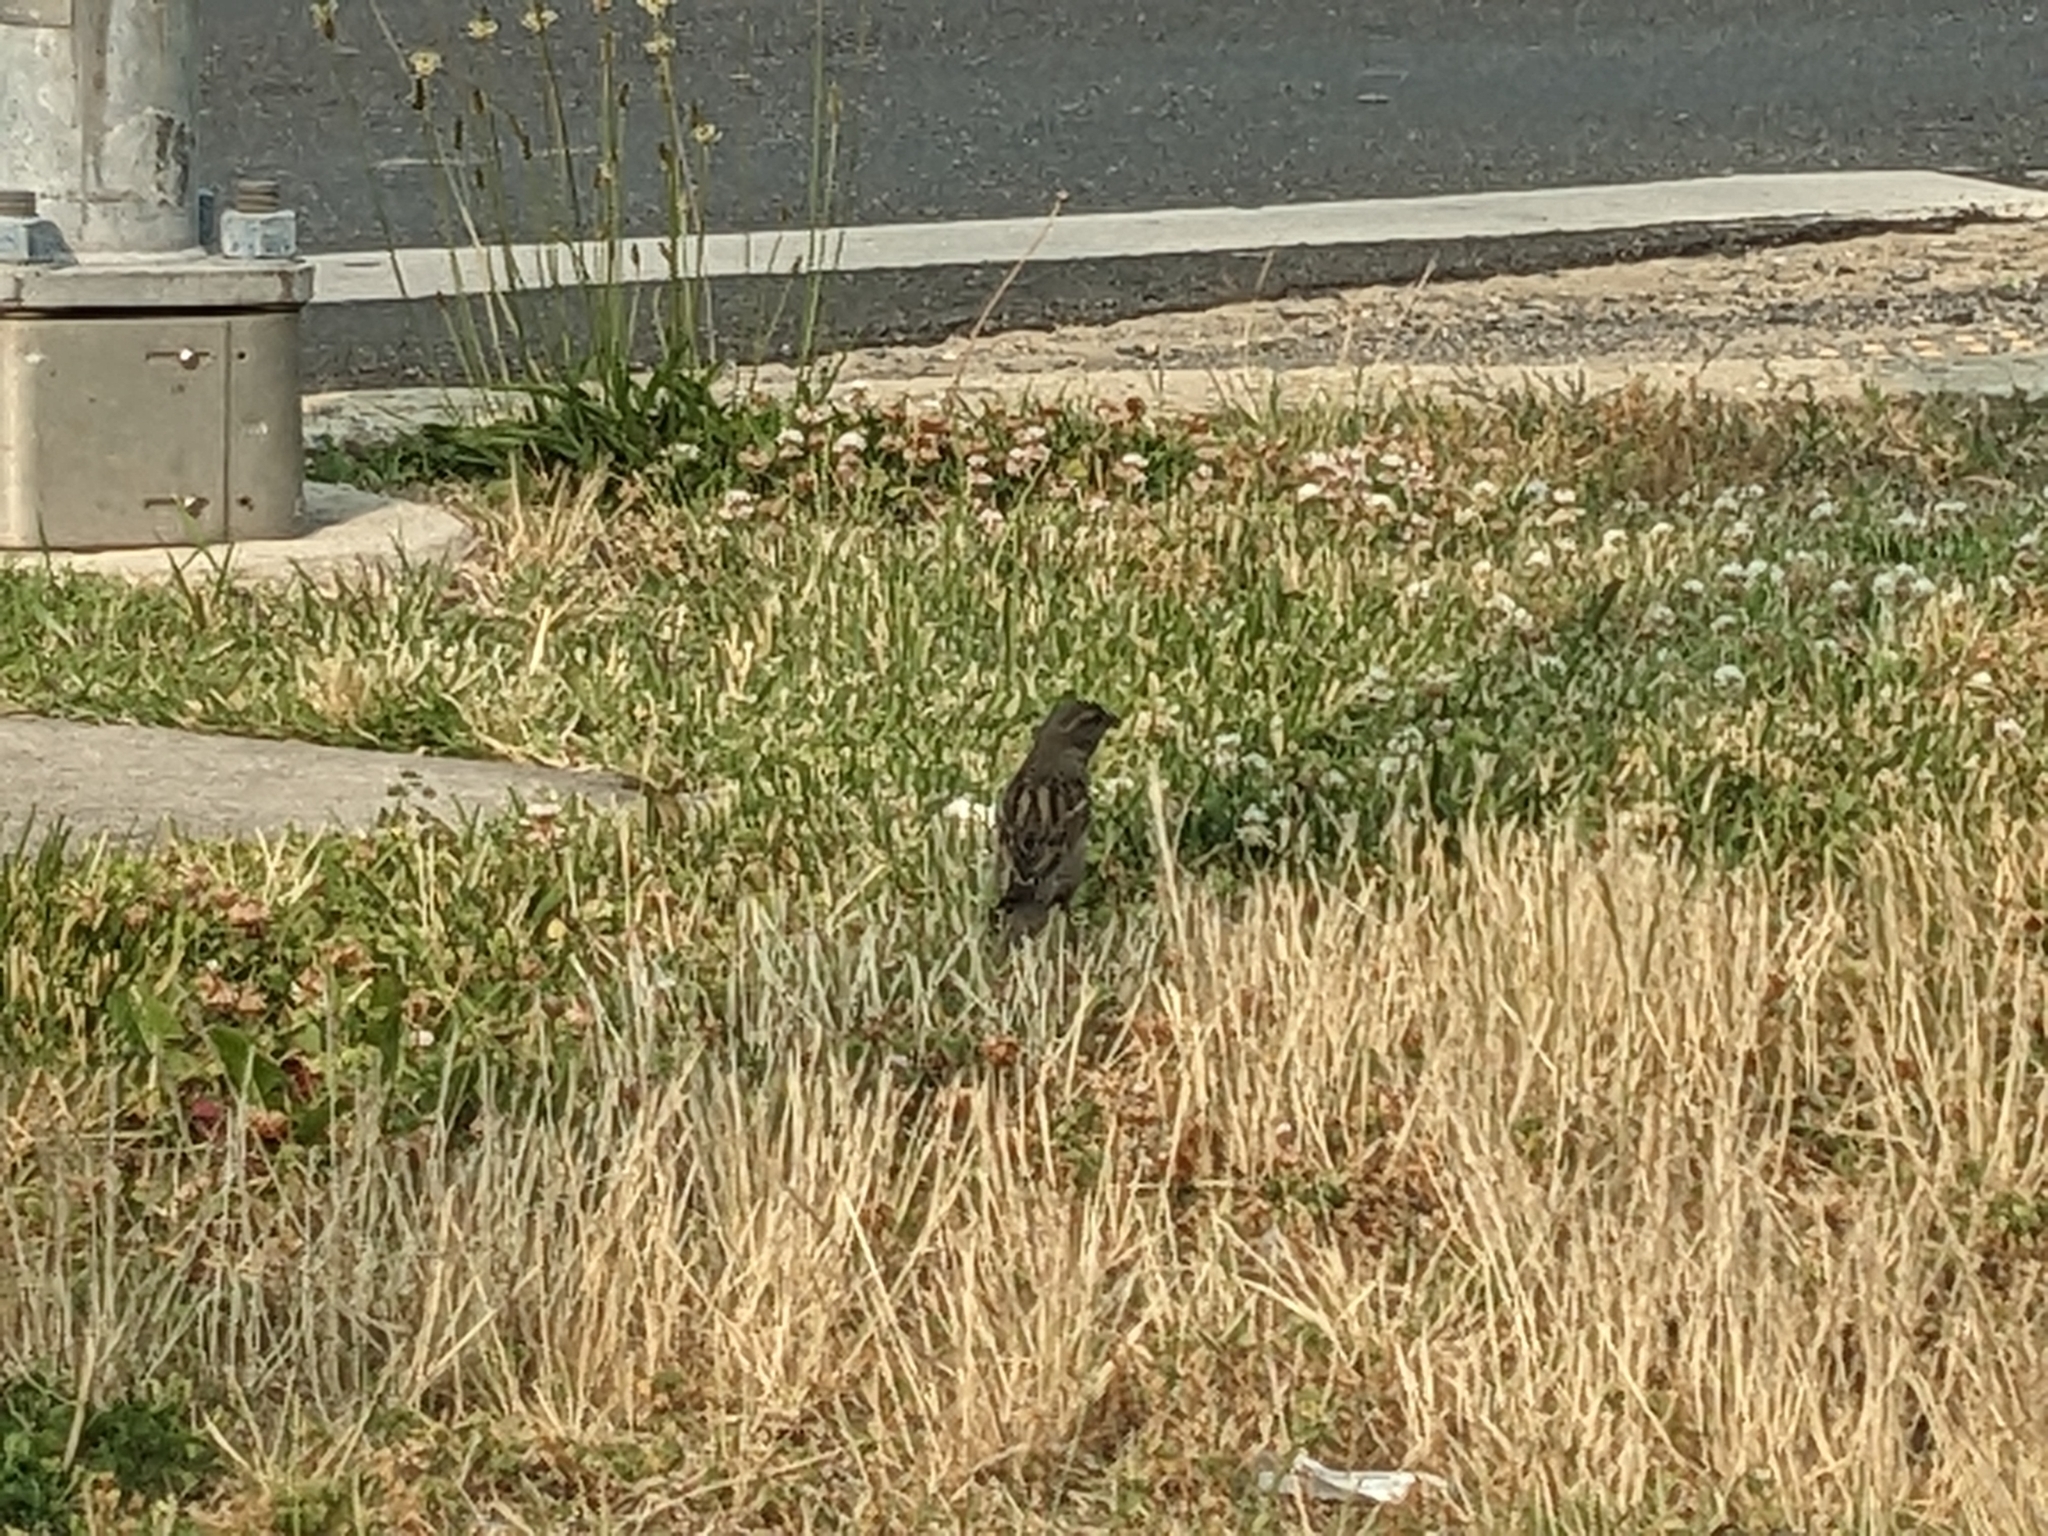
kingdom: Animalia
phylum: Chordata
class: Aves
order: Passeriformes
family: Passeridae
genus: Passer
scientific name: Passer domesticus
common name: House sparrow
